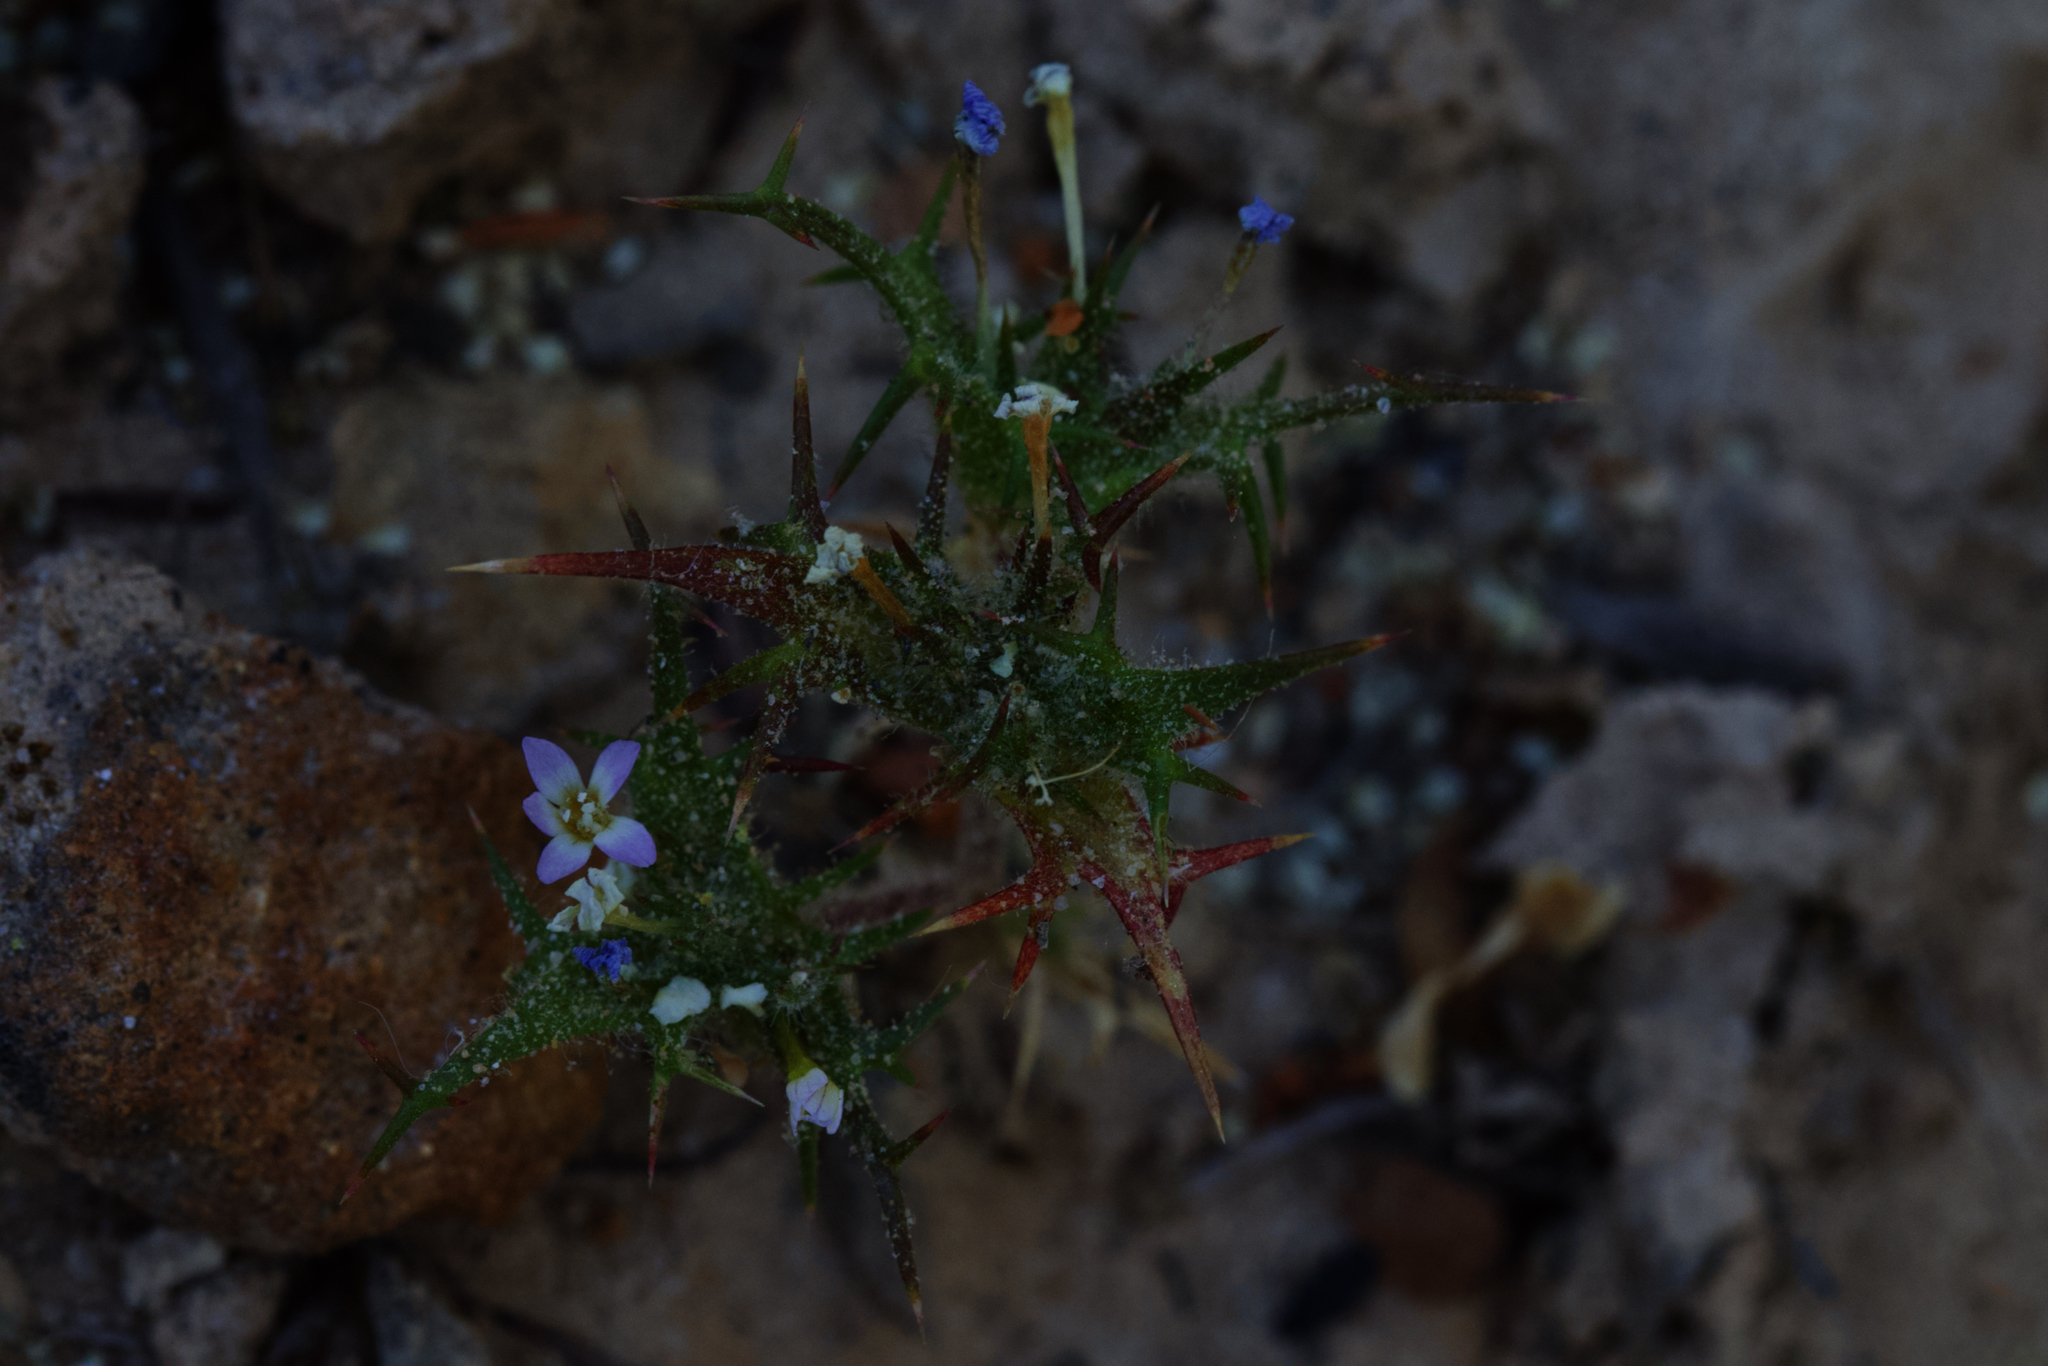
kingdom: Plantae
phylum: Tracheophyta
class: Magnoliopsida
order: Ericales
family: Polemoniaceae
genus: Navarretia
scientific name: Navarretia hamata
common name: Hooked navarretia
